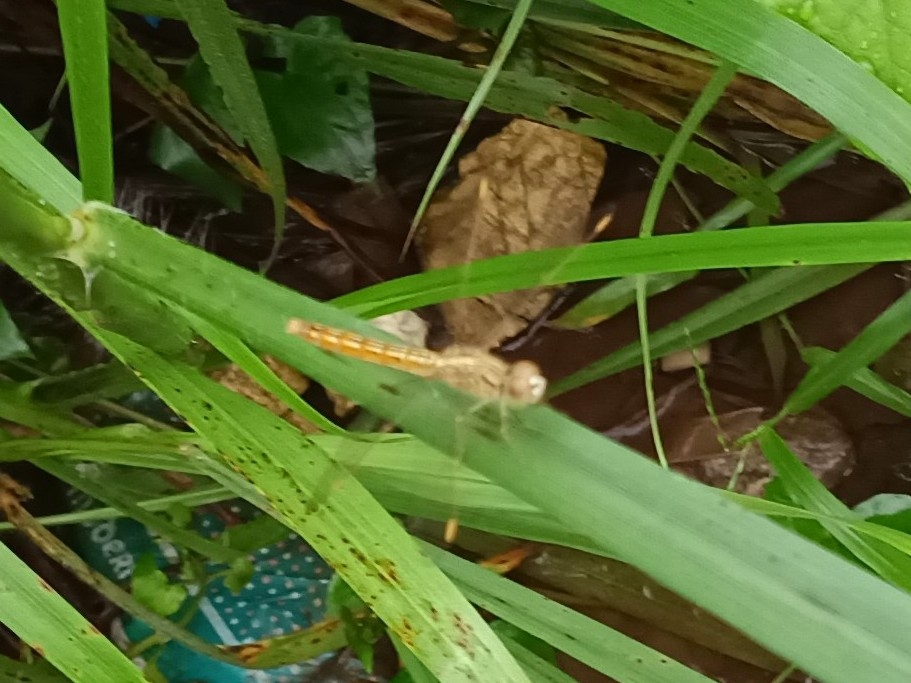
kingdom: Animalia
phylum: Arthropoda
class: Insecta
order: Odonata
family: Libellulidae
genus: Brachythemis
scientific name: Brachythemis contaminata
